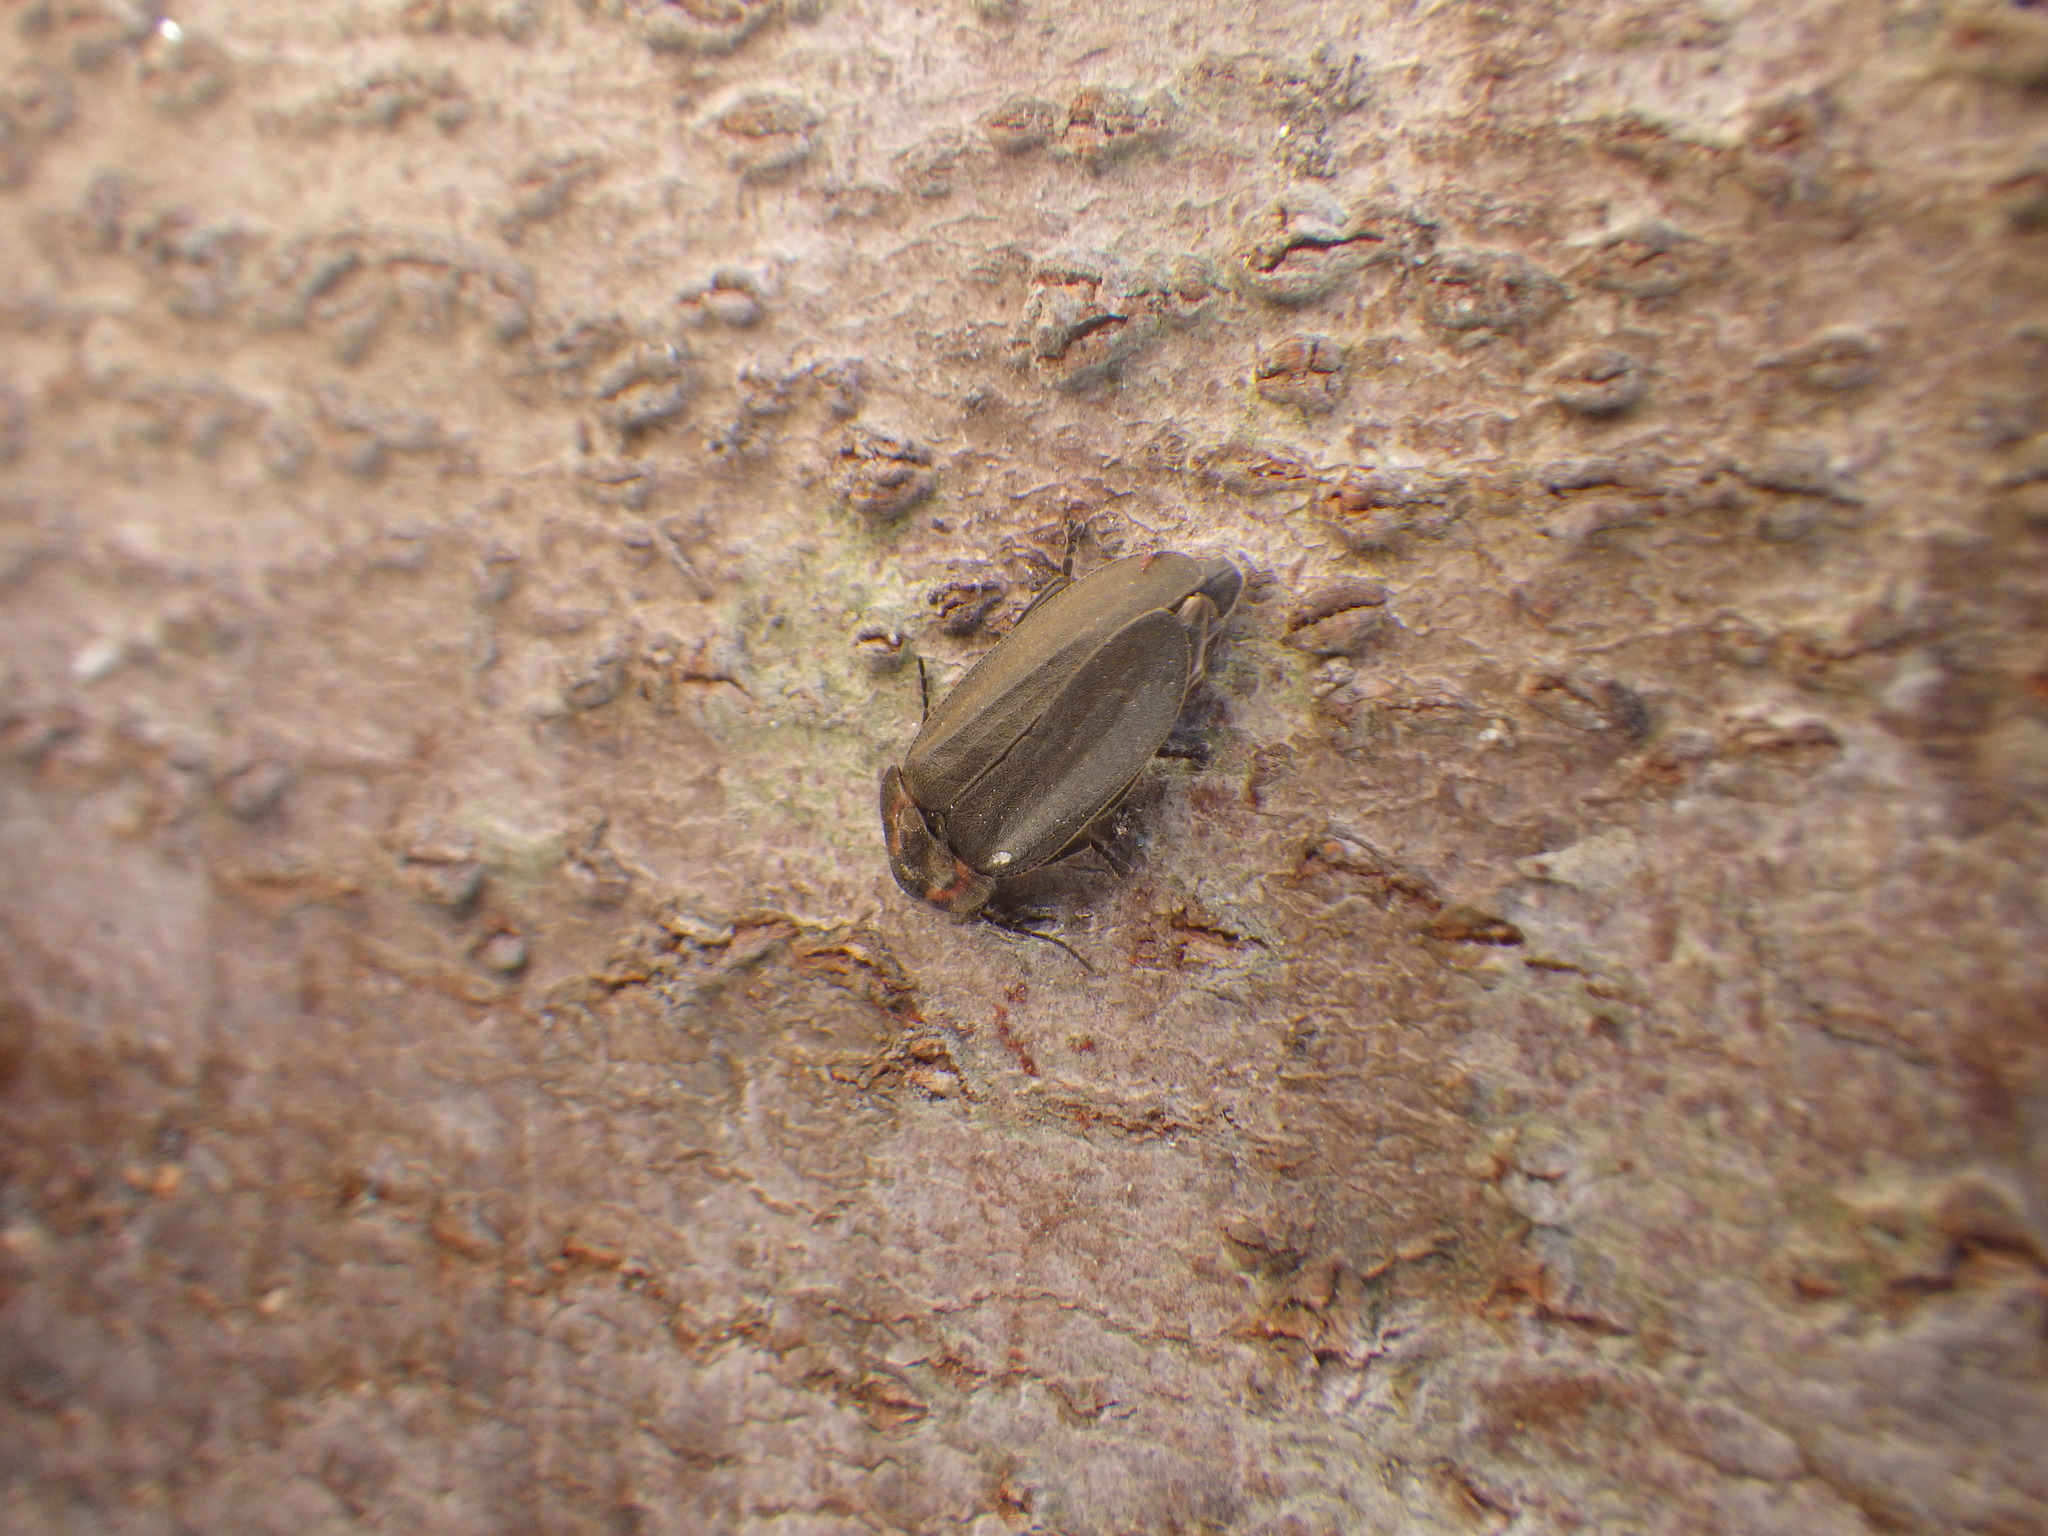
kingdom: Animalia
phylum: Arthropoda
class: Insecta
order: Coleoptera
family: Lampyridae
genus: Photinus
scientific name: Photinus corrusca
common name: Winter firefly
